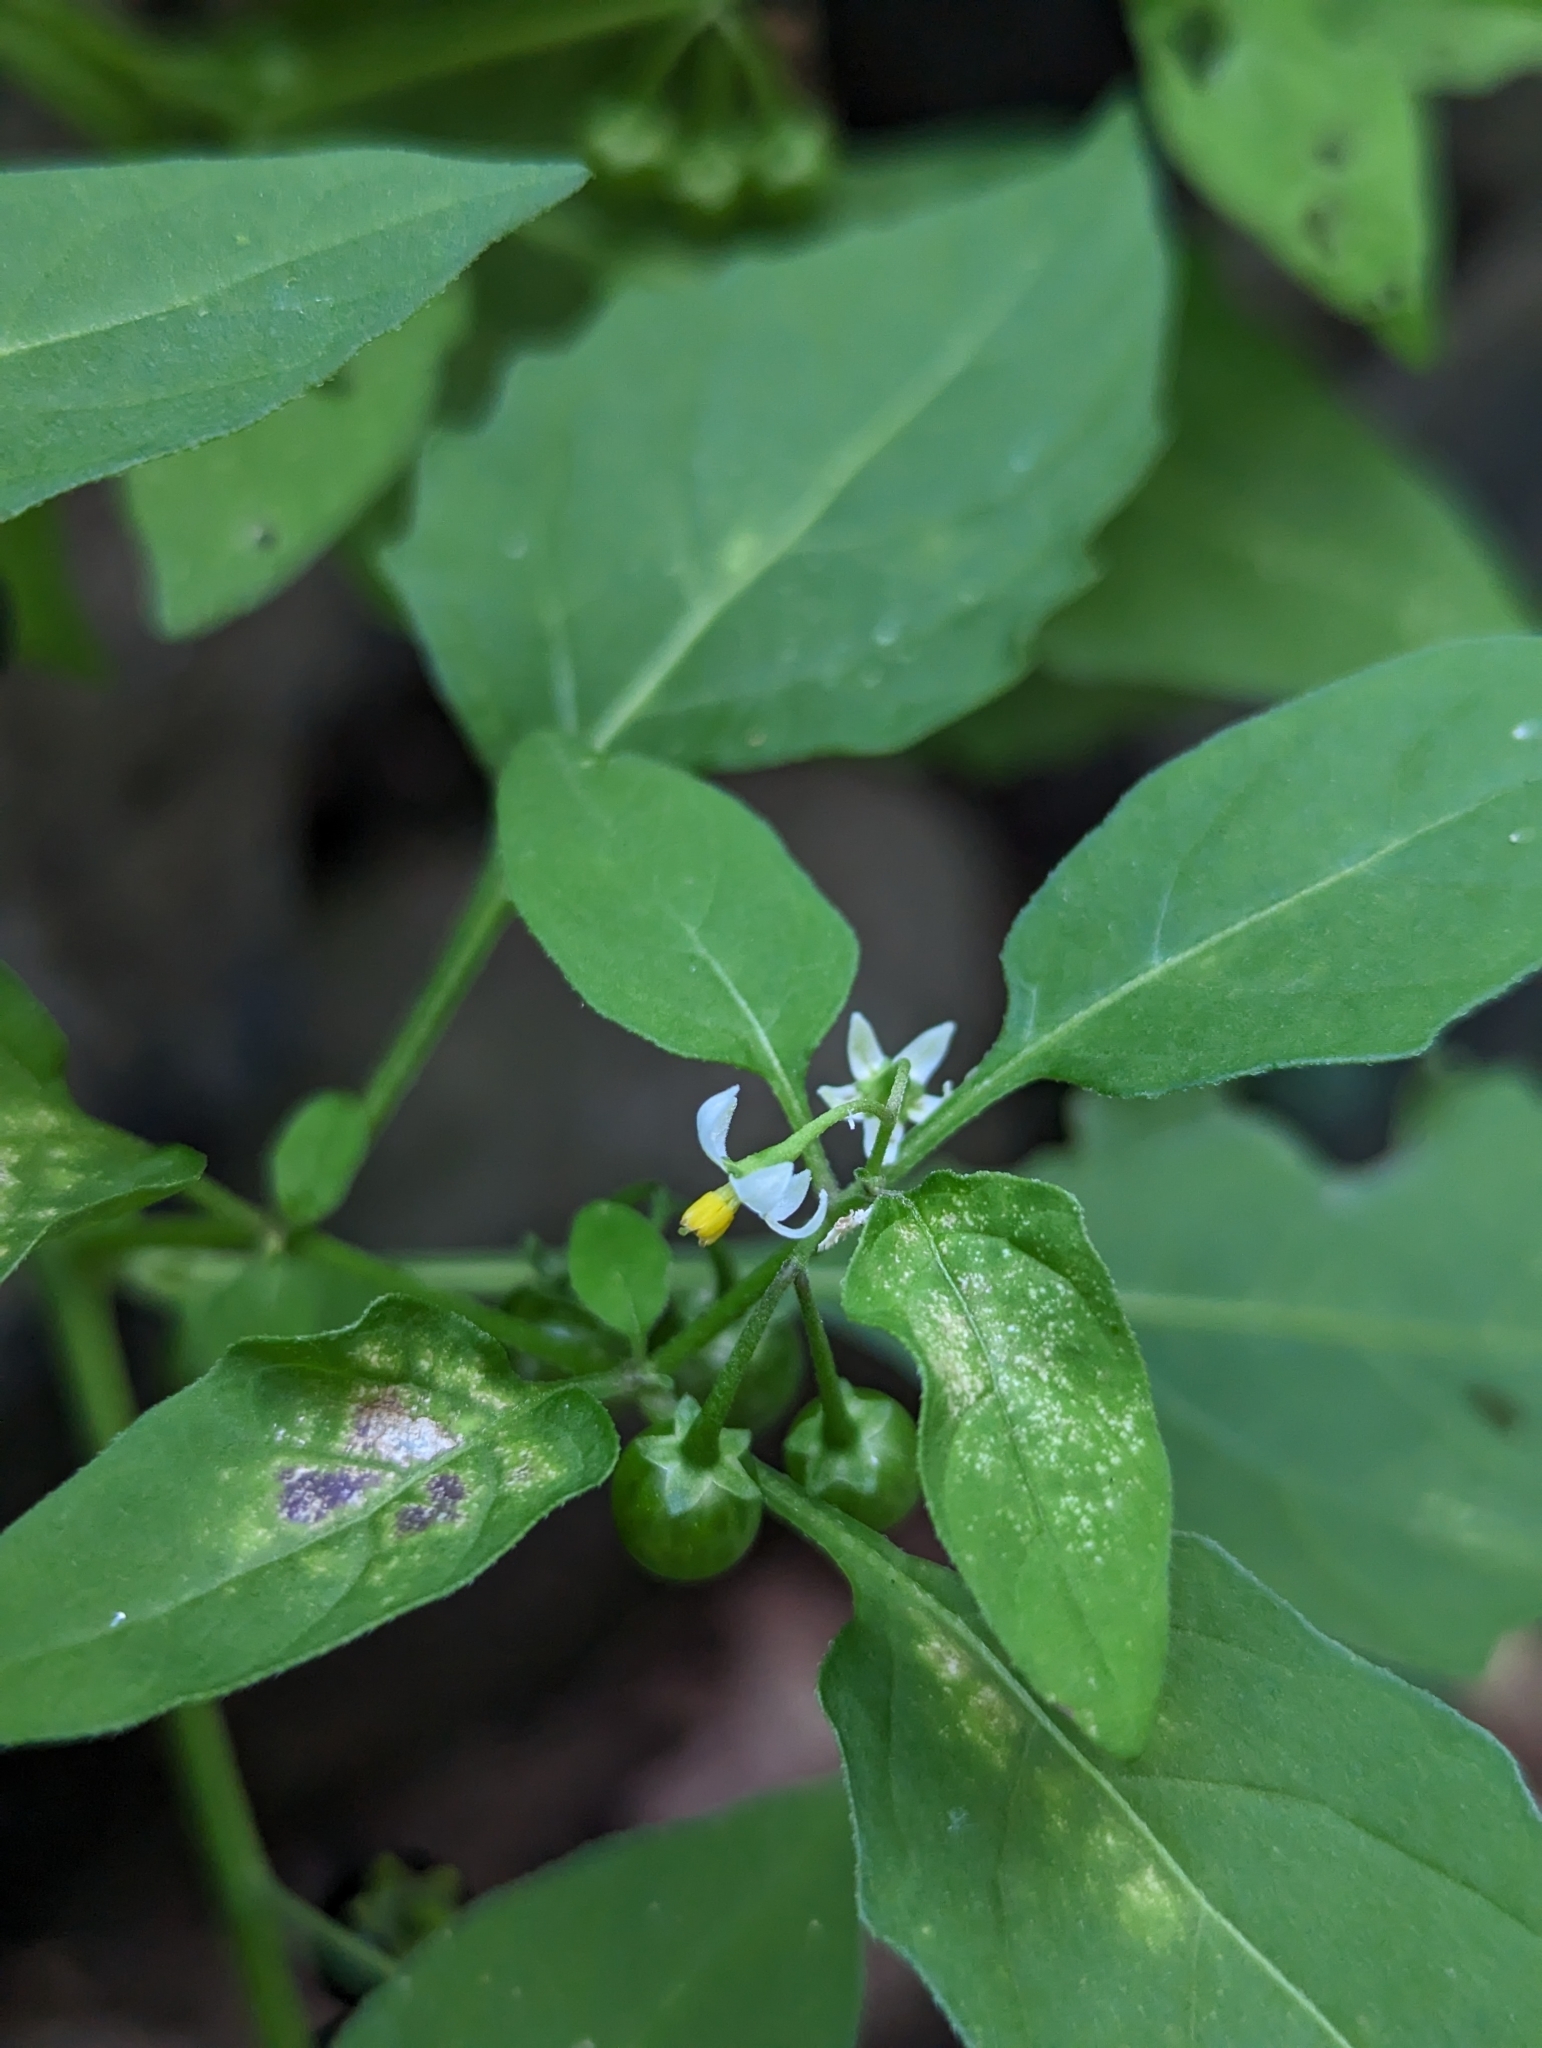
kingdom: Plantae
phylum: Tracheophyta
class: Magnoliopsida
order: Solanales
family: Solanaceae
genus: Solanum
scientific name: Solanum emulans
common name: Eastern black nightshade
